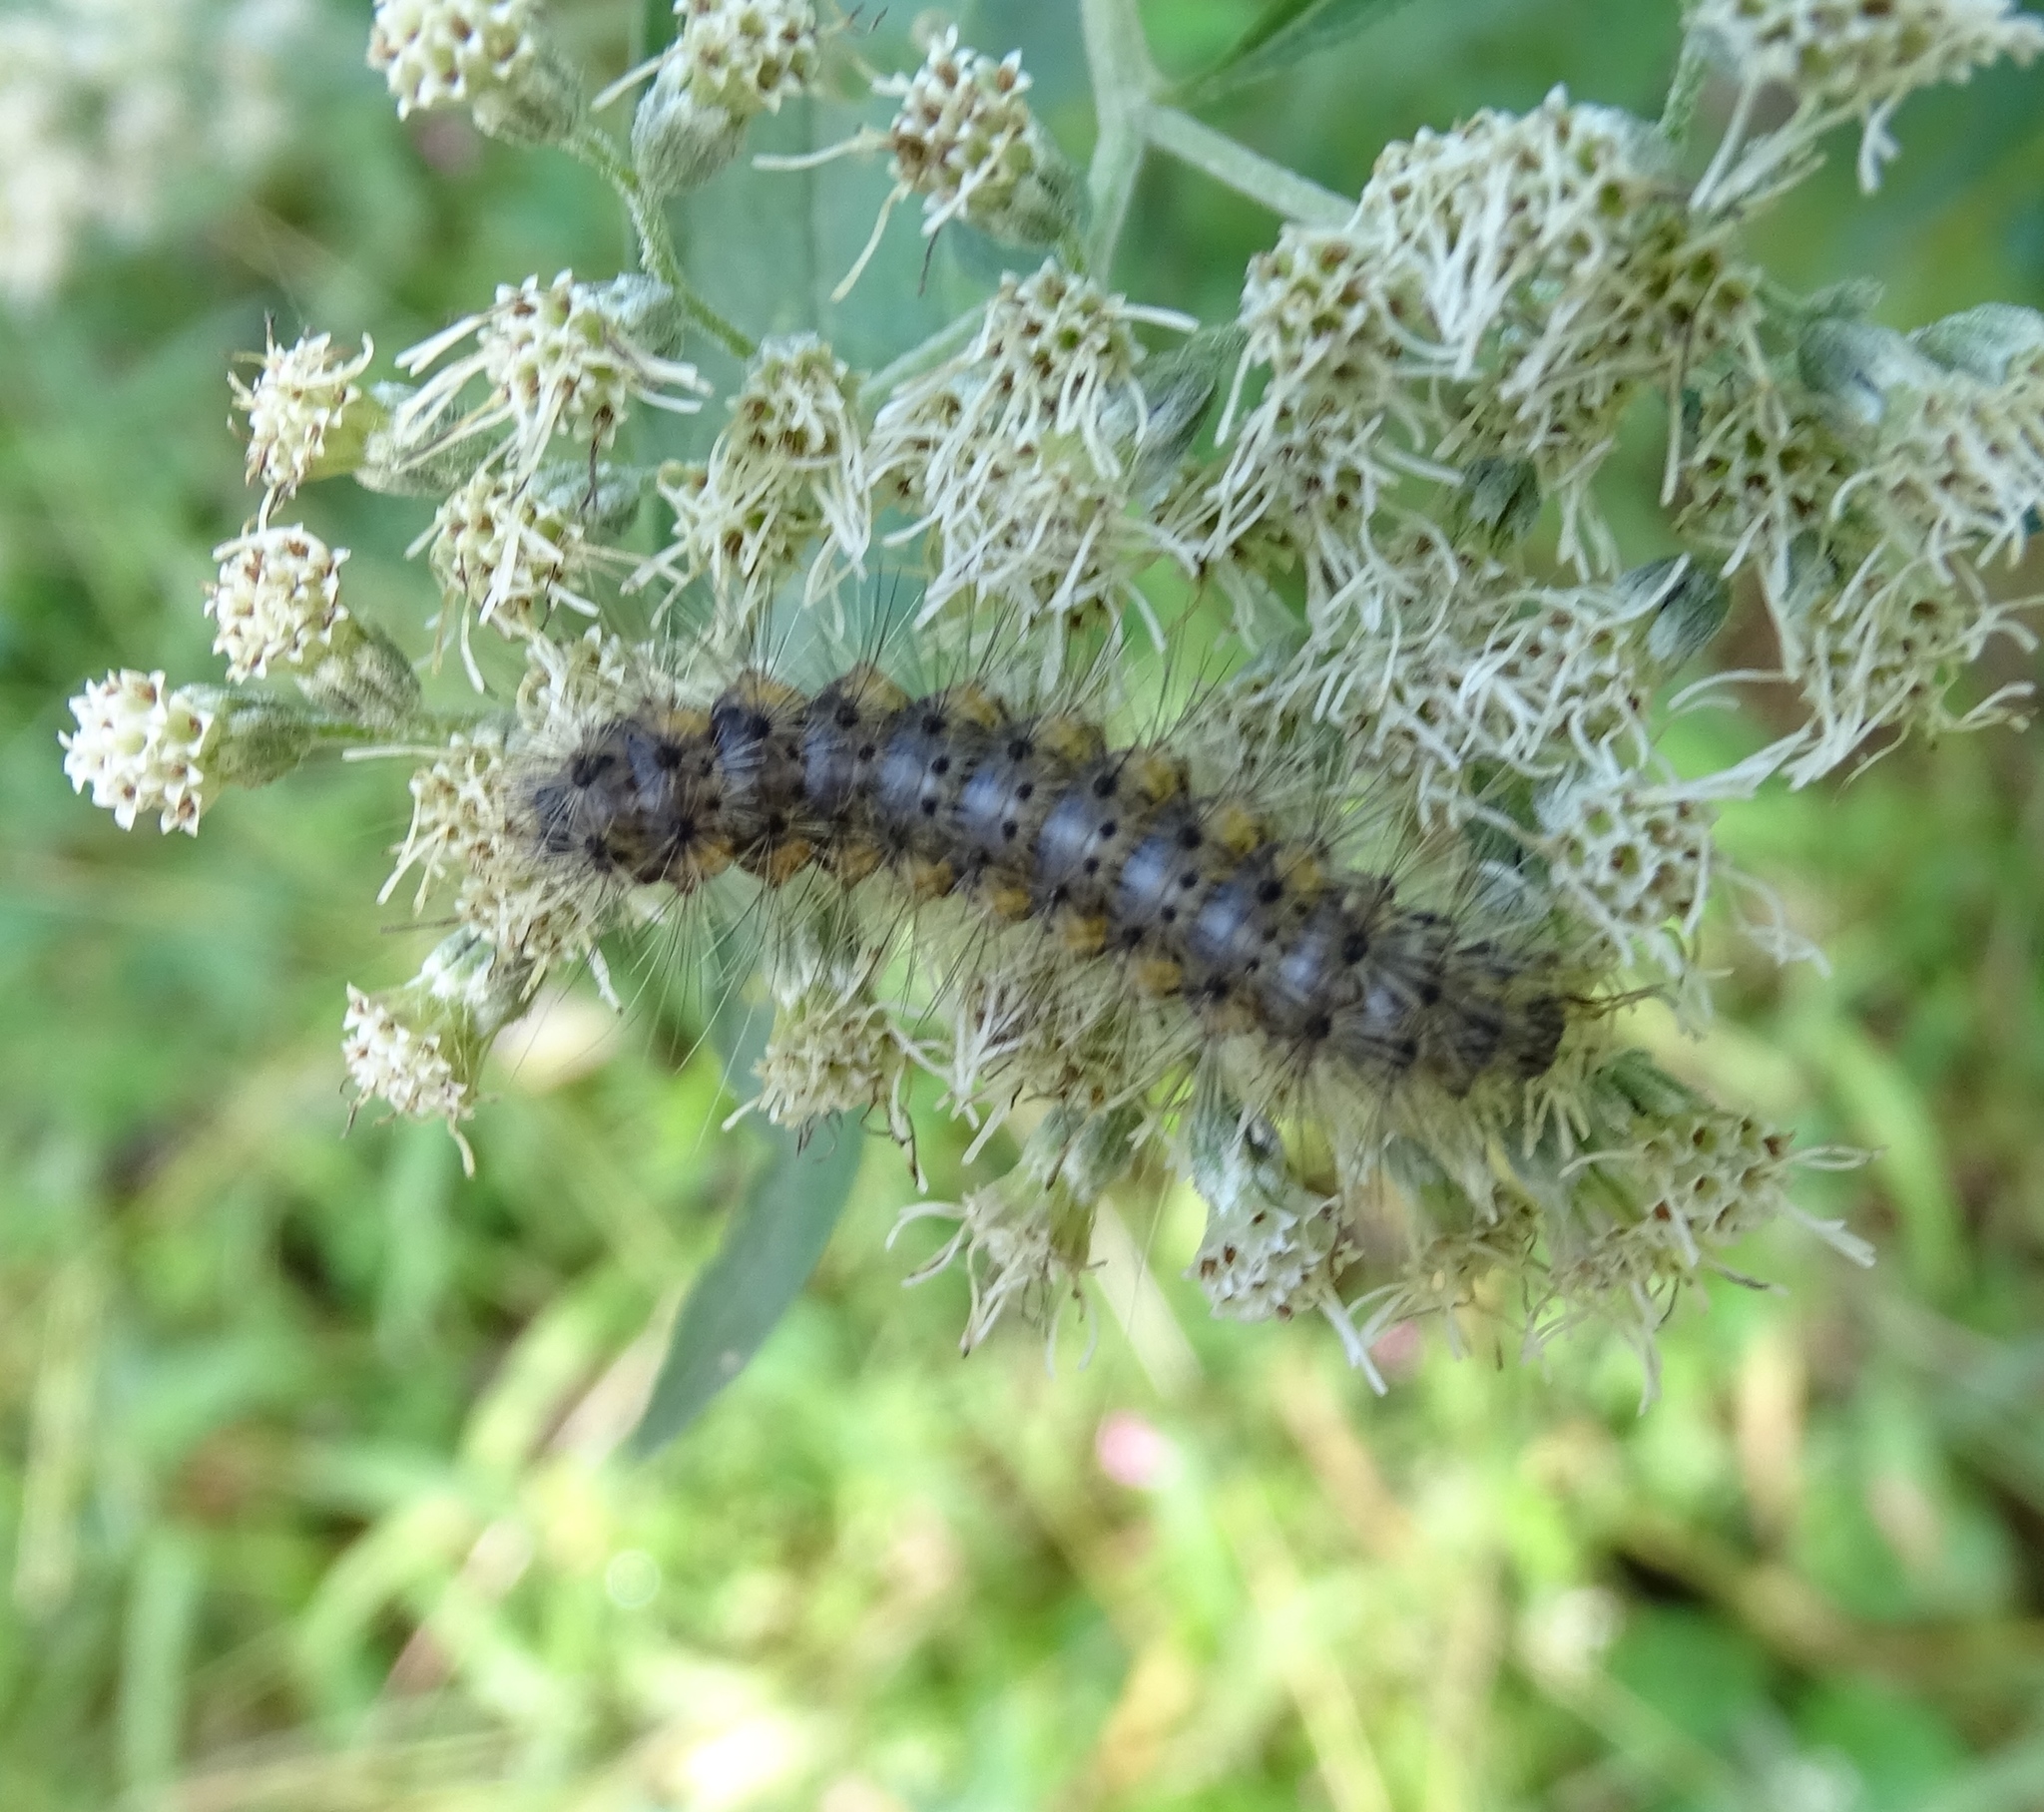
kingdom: Animalia
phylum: Arthropoda
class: Insecta
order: Lepidoptera
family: Erebidae
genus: Hyphantria
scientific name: Hyphantria cunea
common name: American white moth
